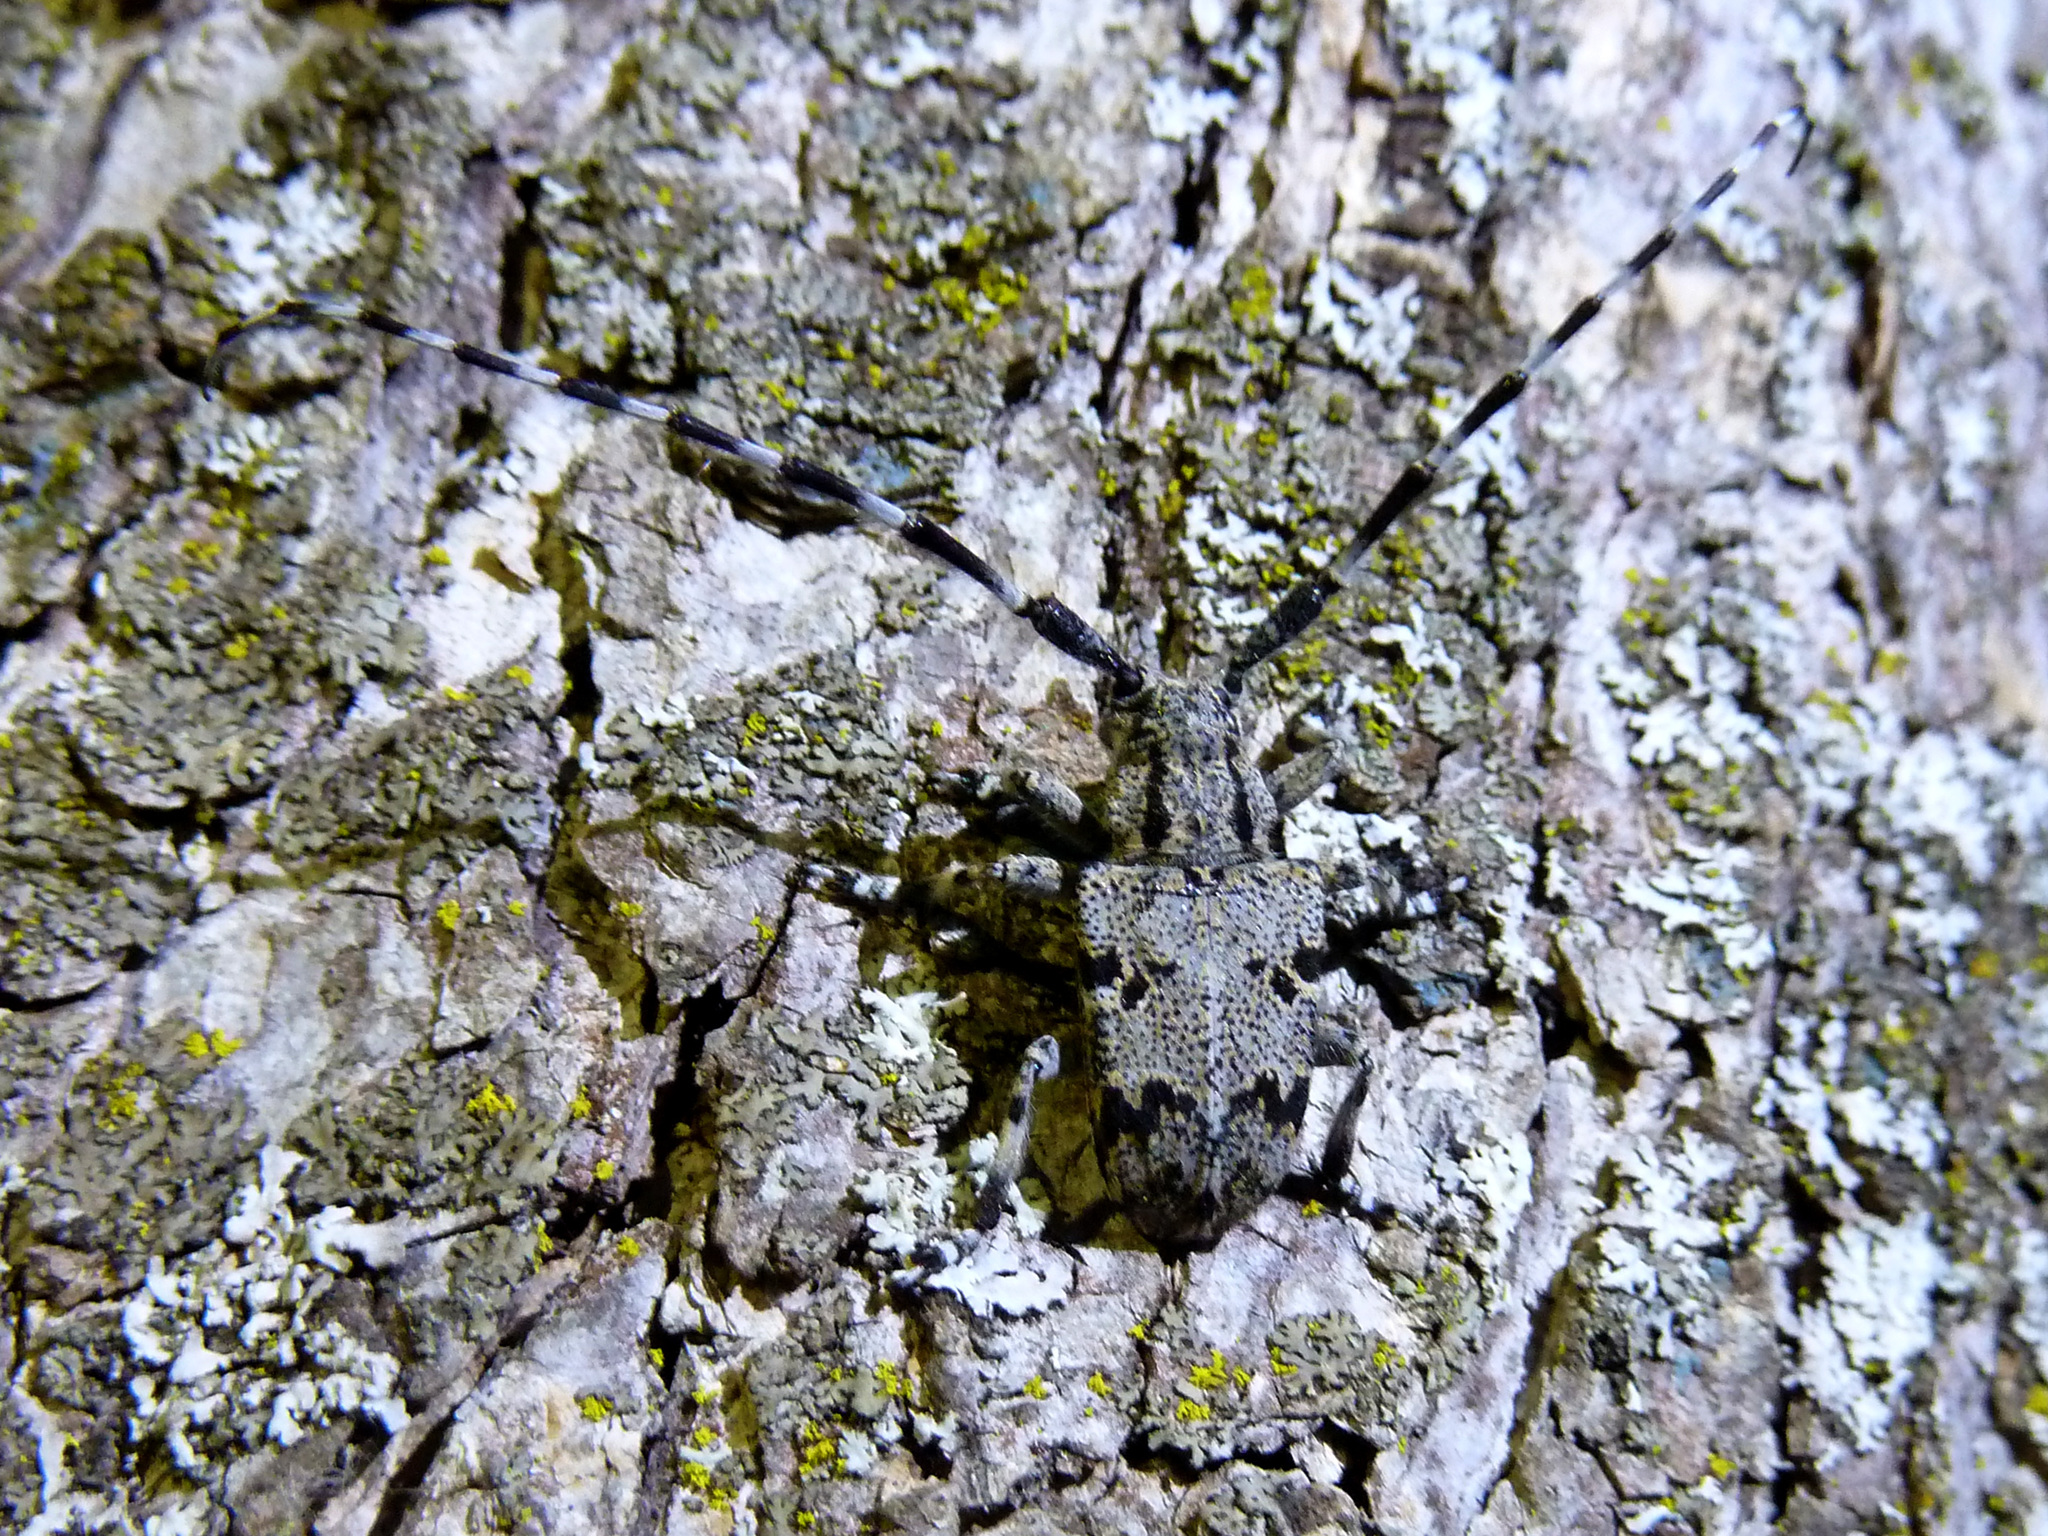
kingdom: Animalia
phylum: Arthropoda
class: Insecta
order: Coleoptera
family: Cerambycidae
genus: Synaphaeta
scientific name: Synaphaeta guexi
